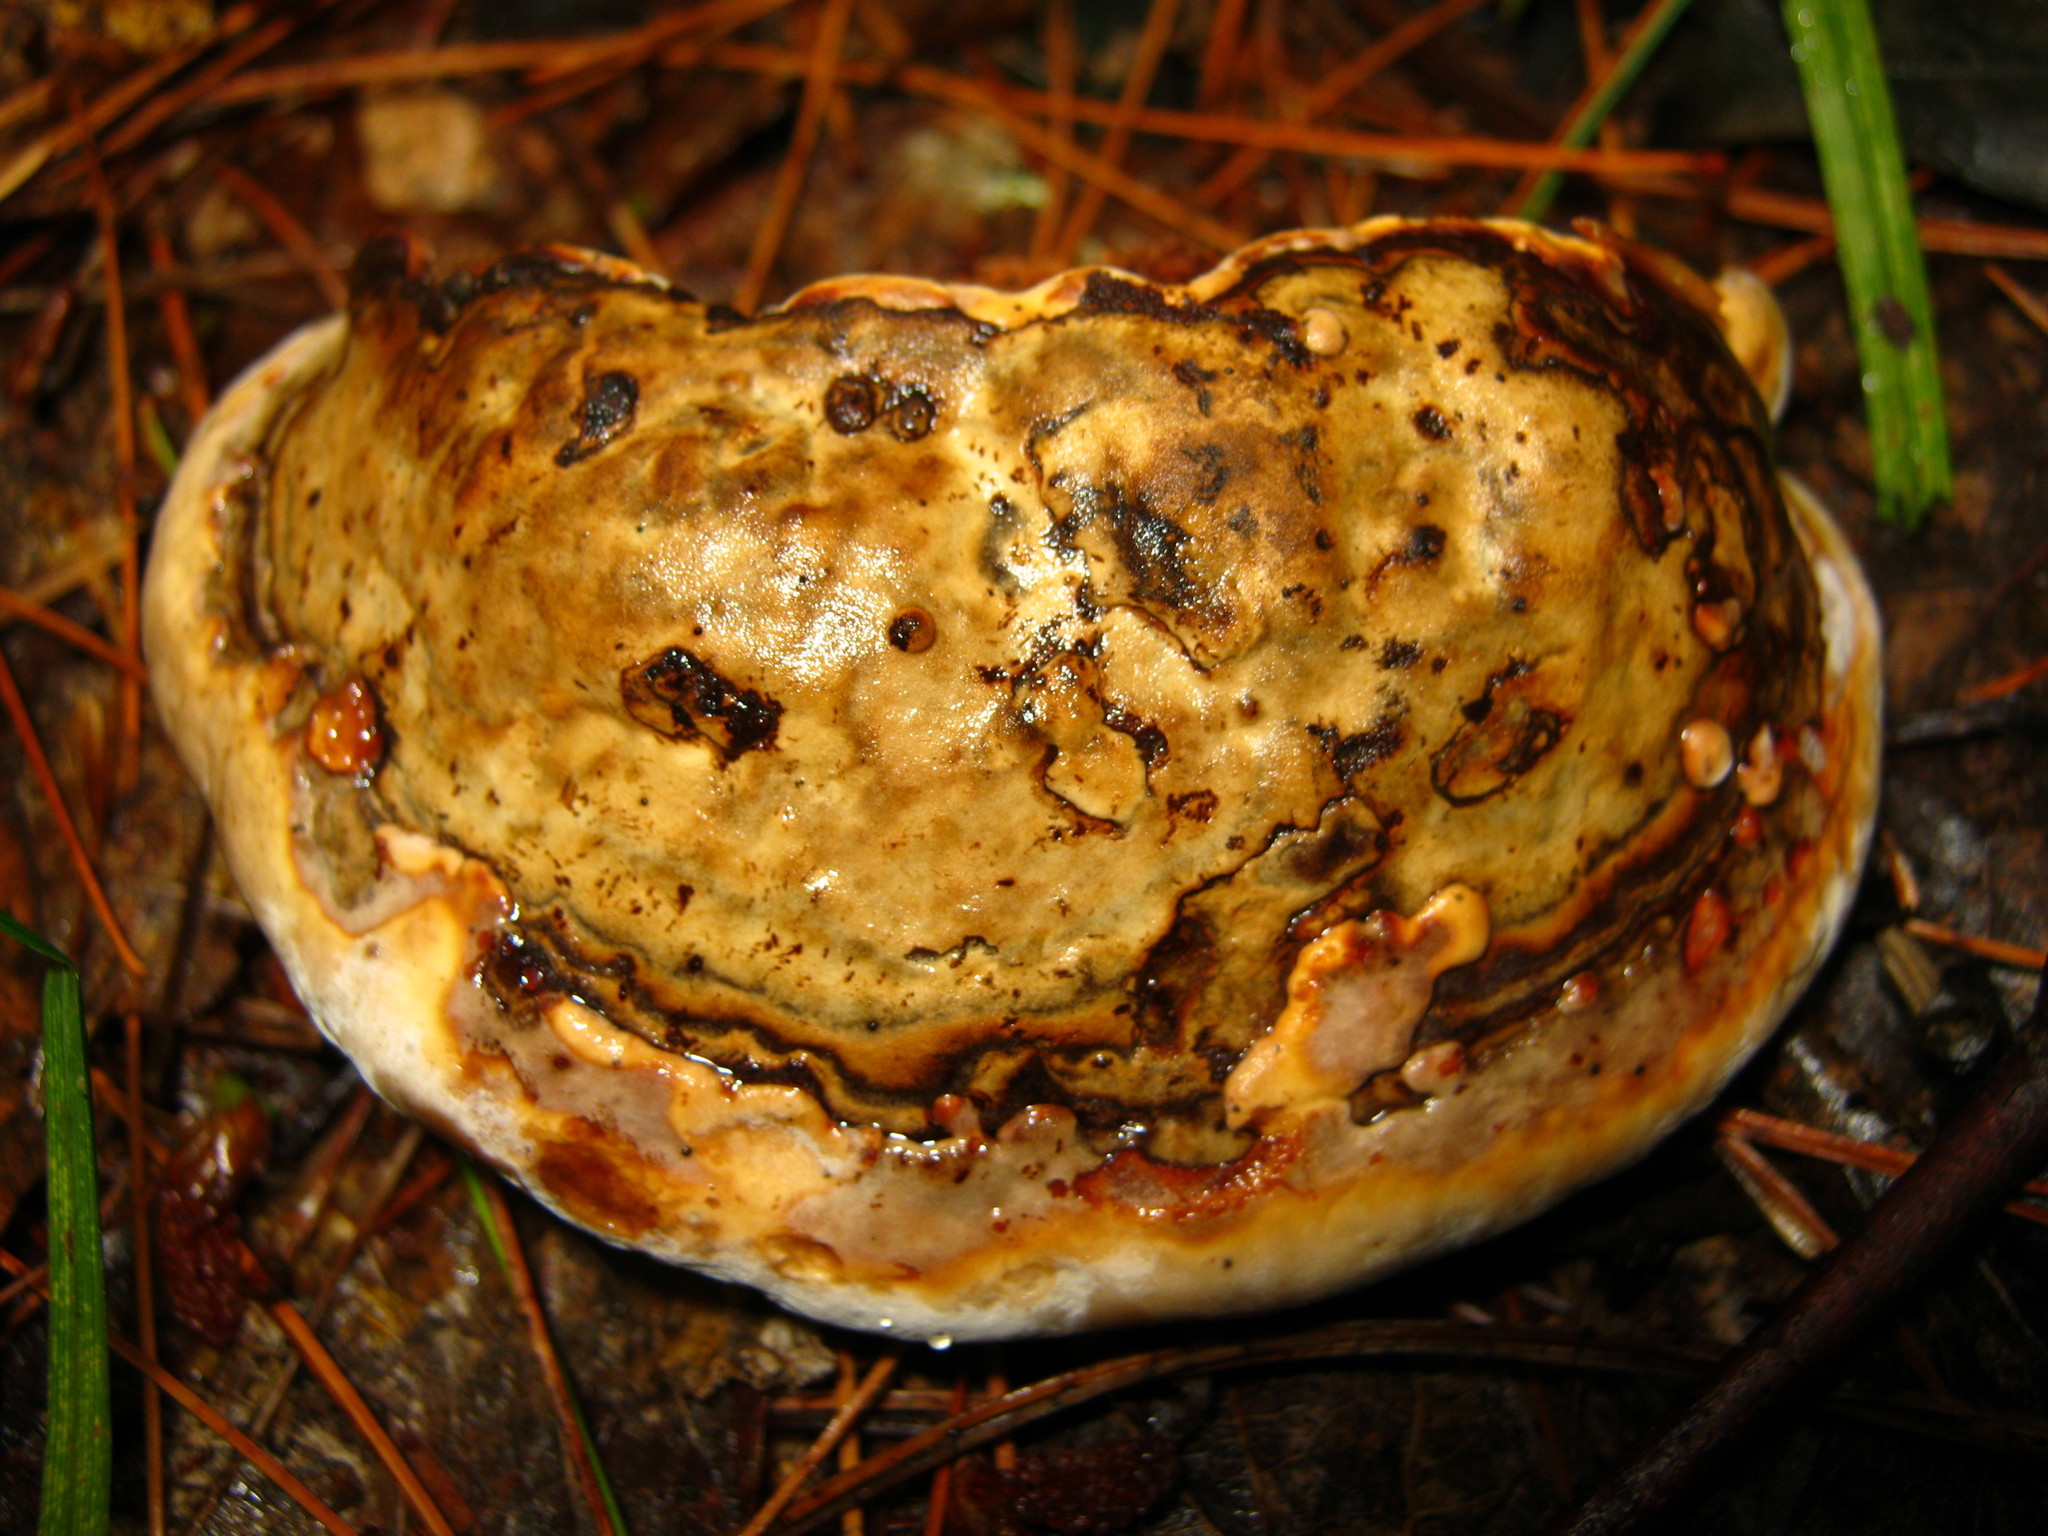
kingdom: Fungi
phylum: Basidiomycota
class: Agaricomycetes
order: Polyporales
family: Polyporaceae
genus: Fomes
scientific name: Fomes fomentarius
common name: Hoof fungus
